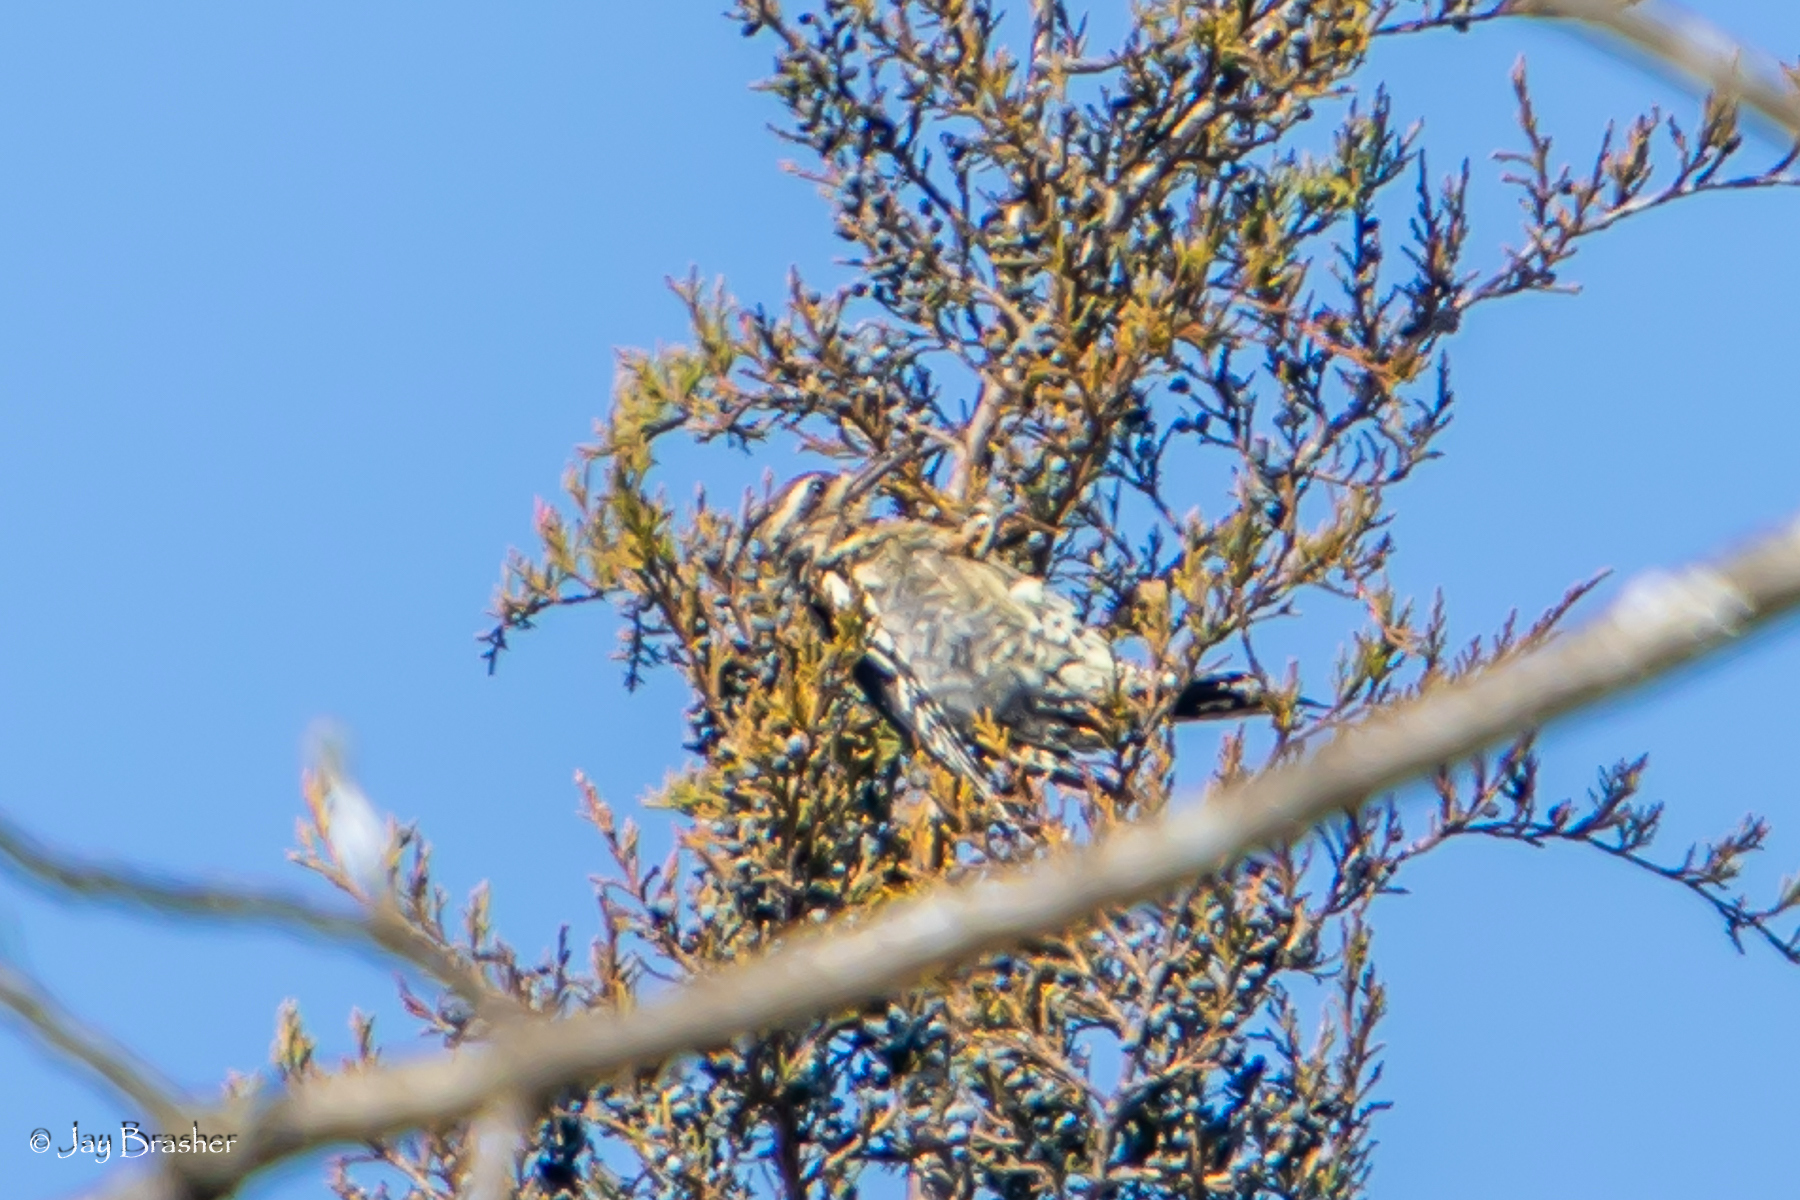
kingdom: Animalia
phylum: Chordata
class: Aves
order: Piciformes
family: Picidae
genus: Sphyrapicus
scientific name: Sphyrapicus varius
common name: Yellow-bellied sapsucker
